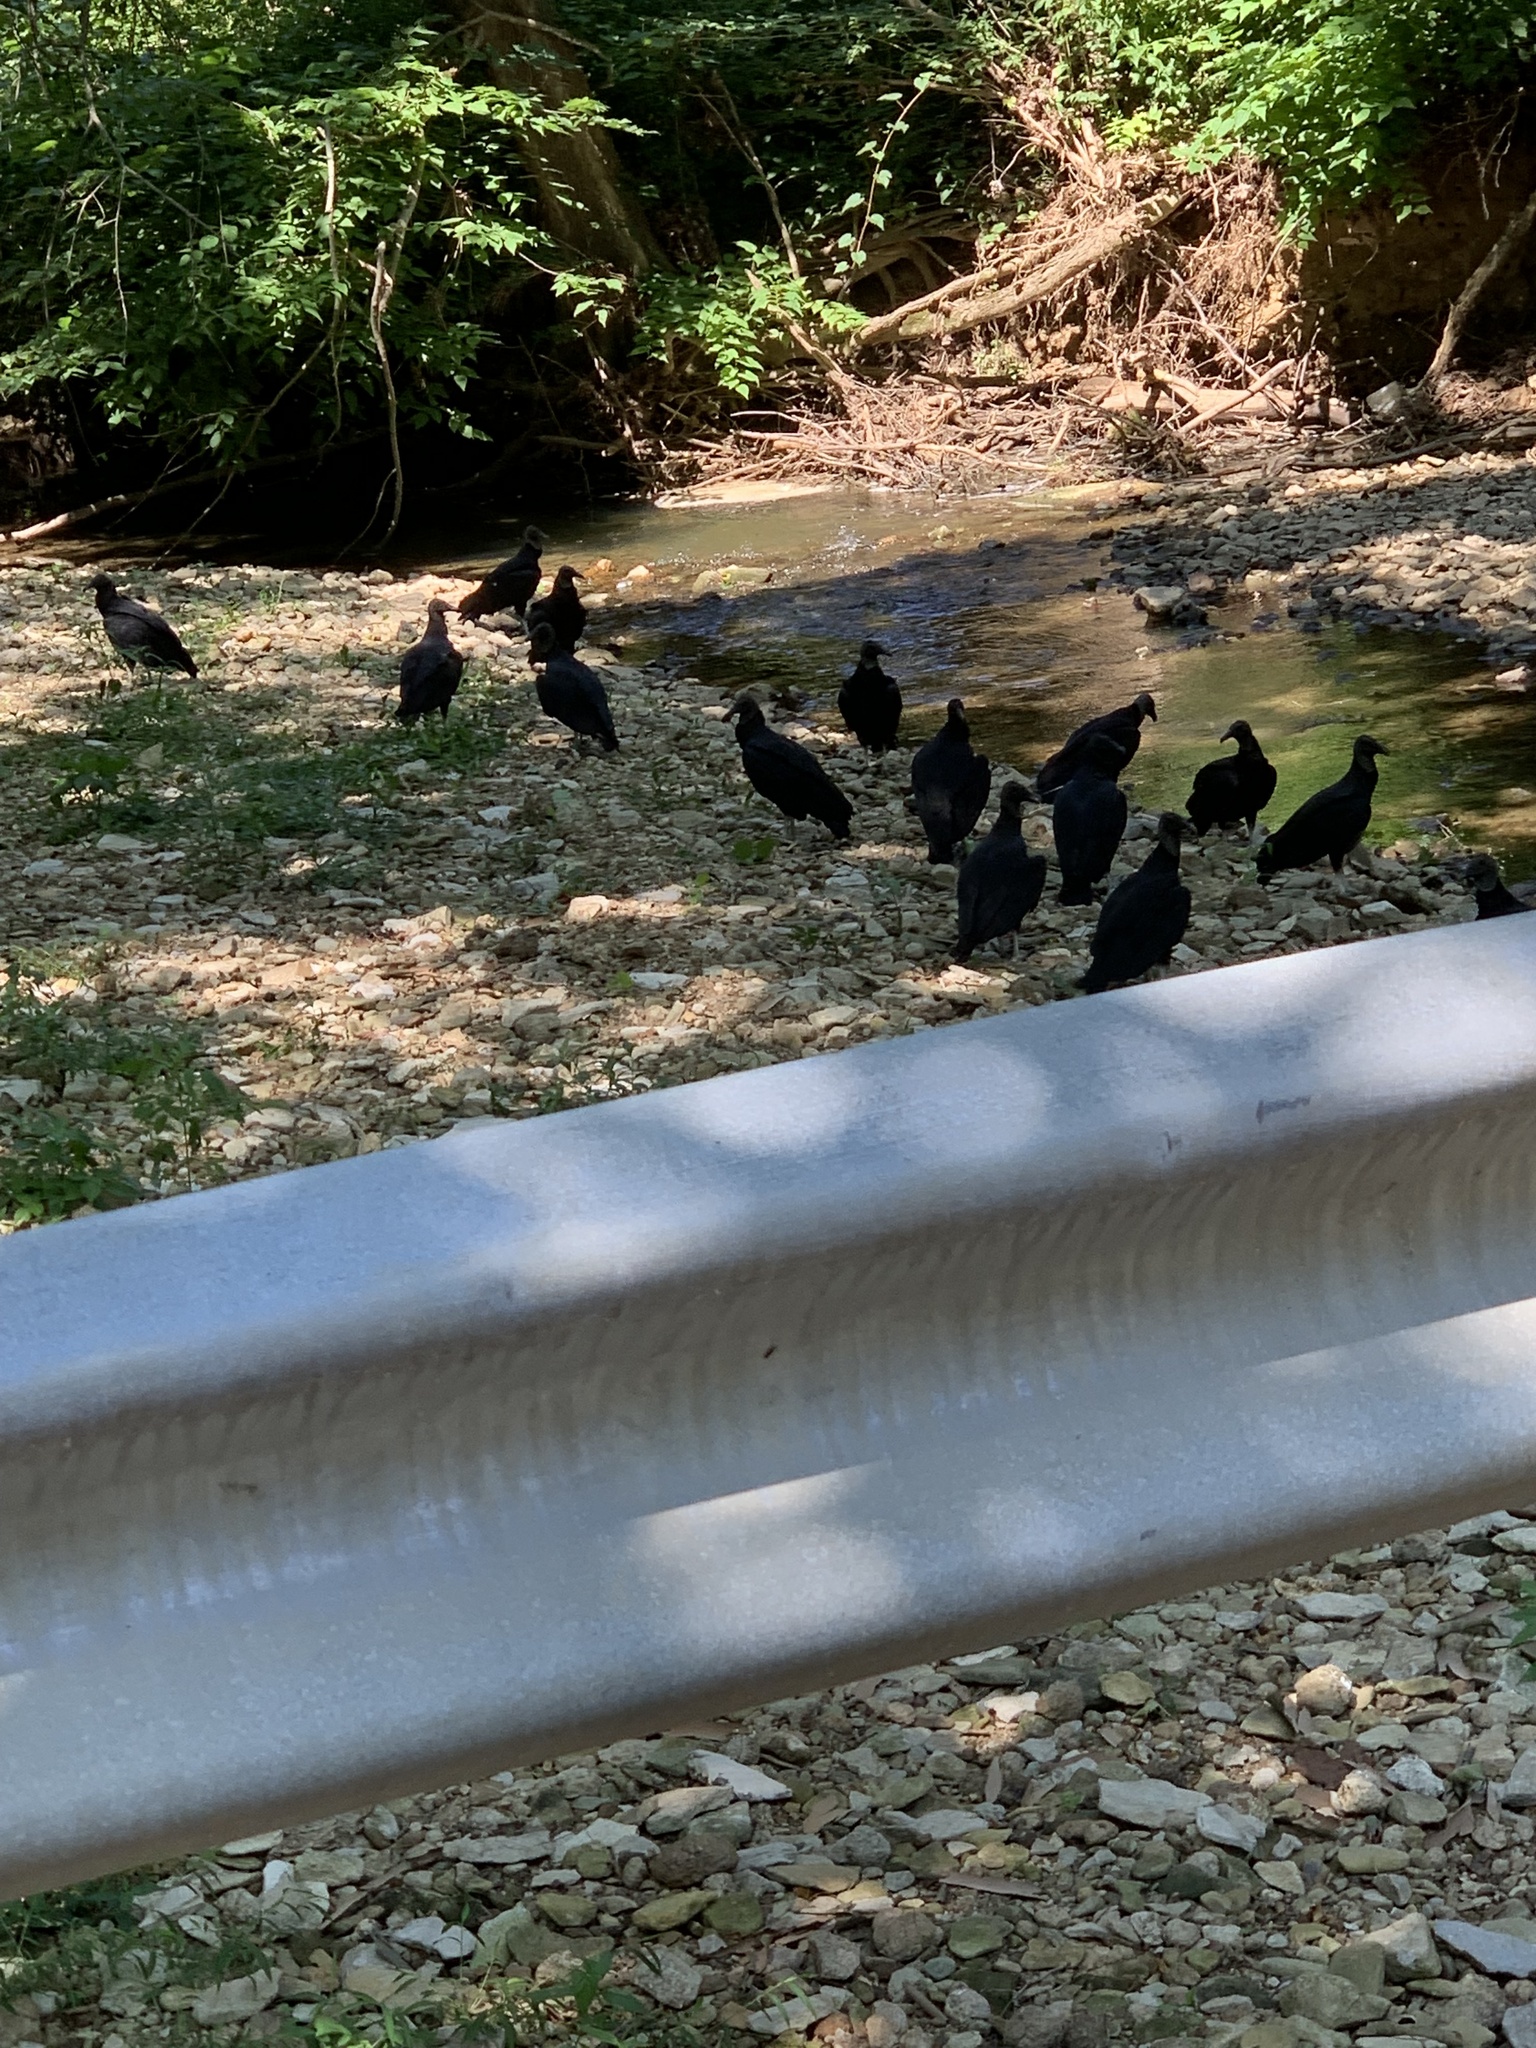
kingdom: Animalia
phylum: Chordata
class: Aves
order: Accipitriformes
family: Cathartidae
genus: Coragyps
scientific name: Coragyps atratus
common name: Black vulture
